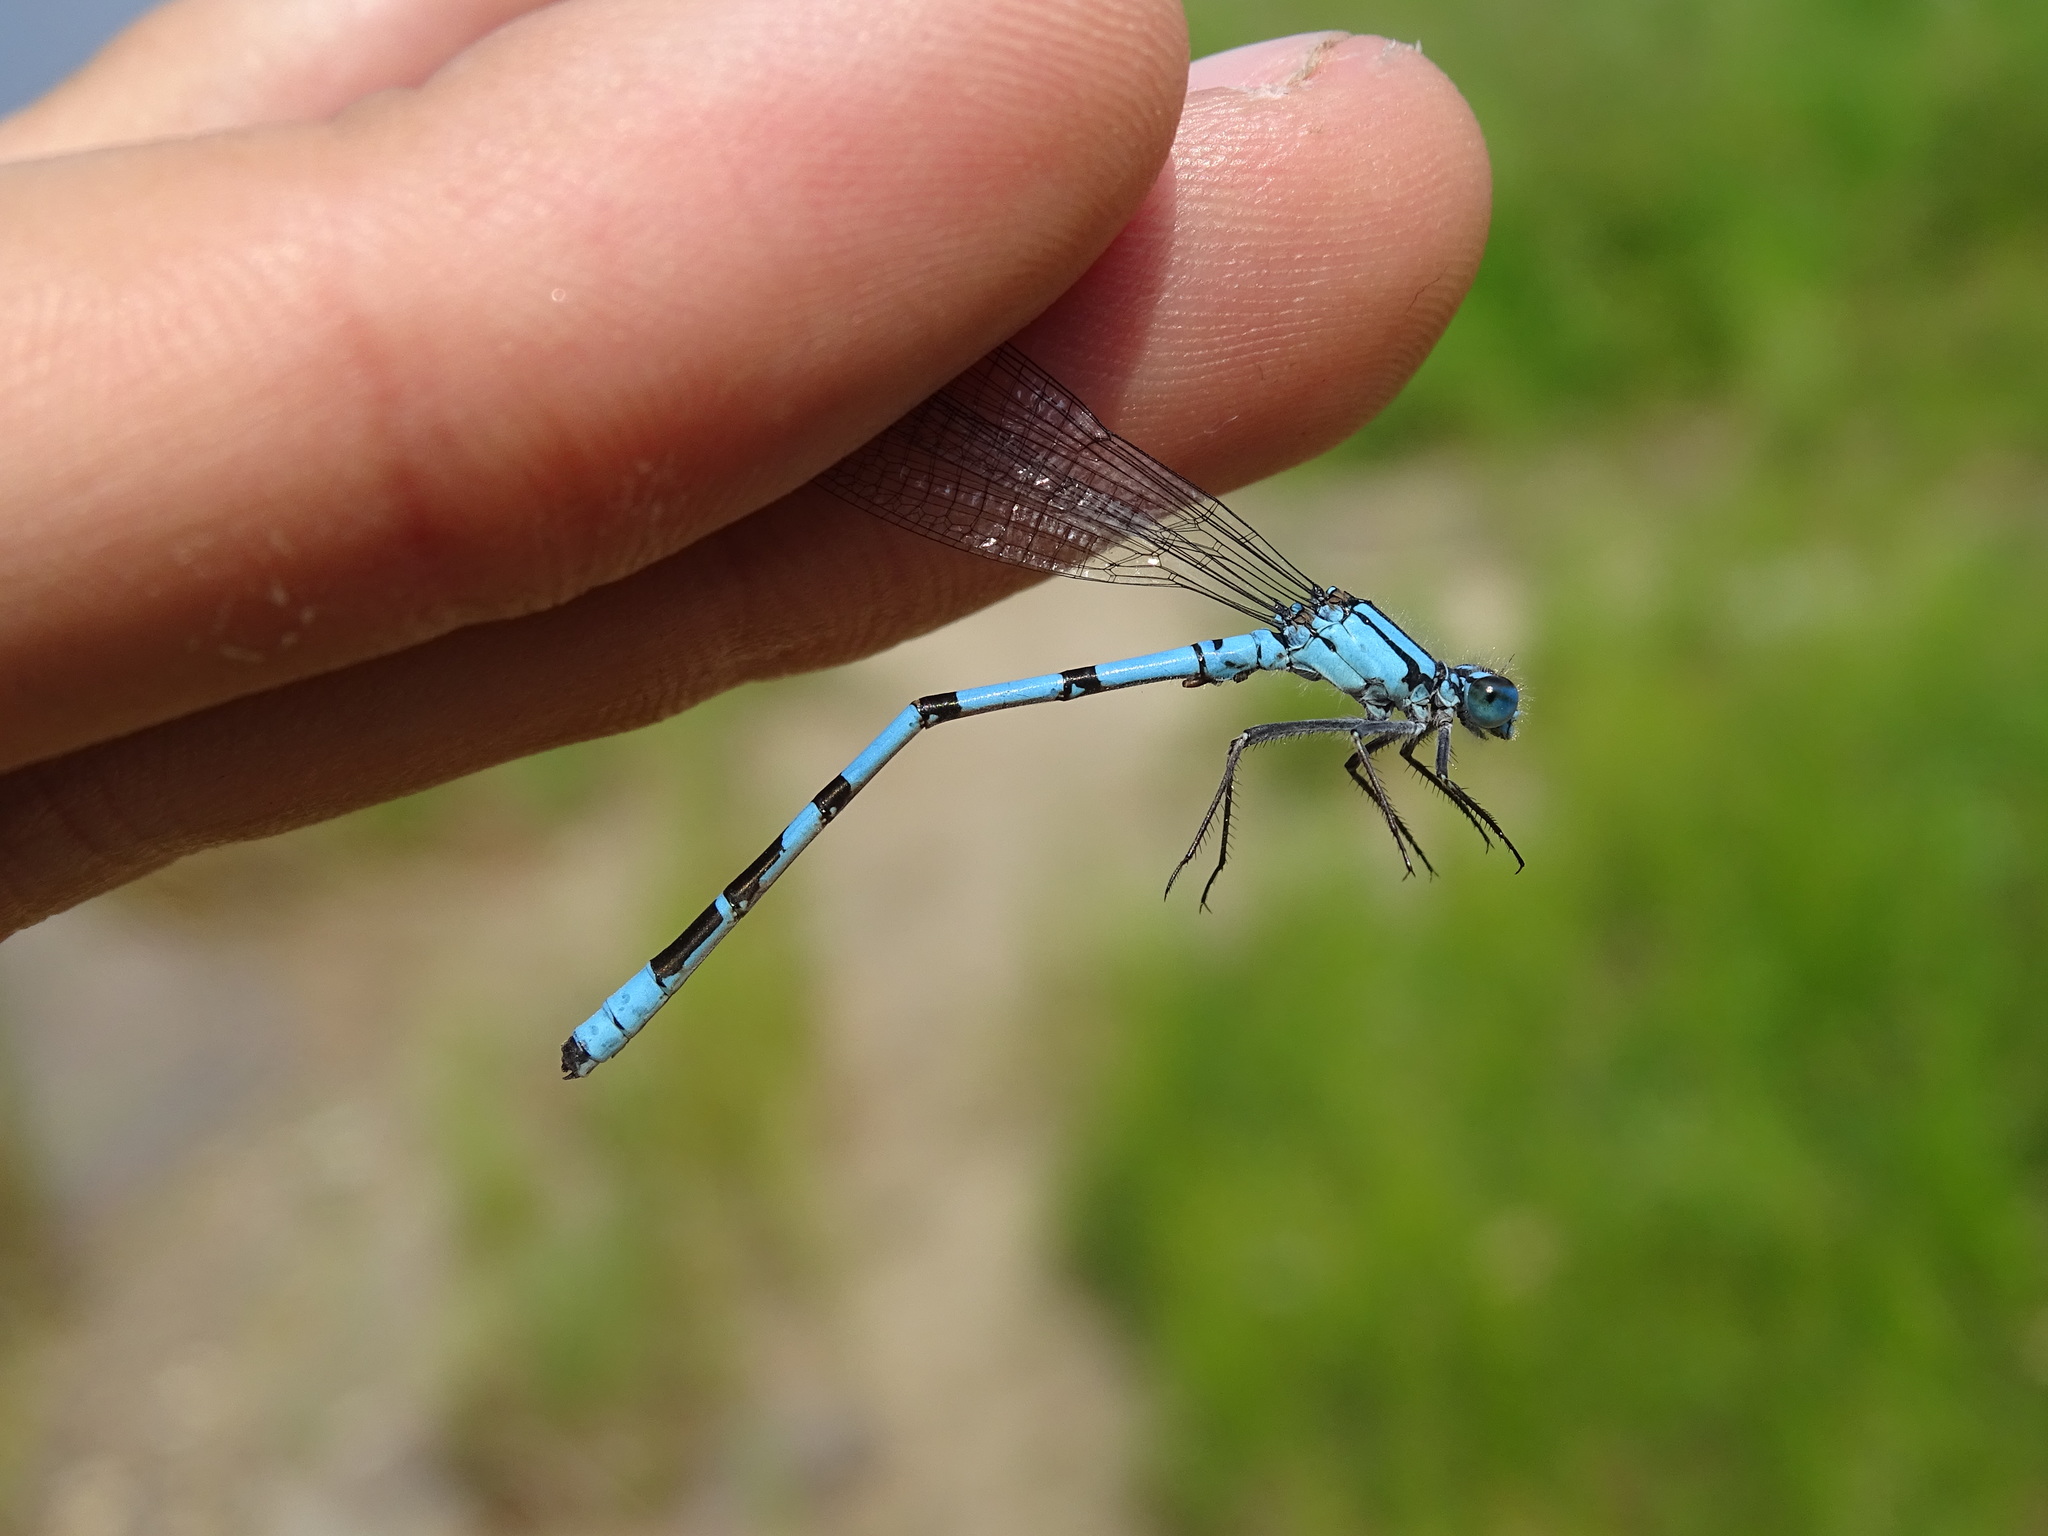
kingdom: Animalia
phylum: Arthropoda
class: Insecta
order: Odonata
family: Coenagrionidae
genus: Enallagma
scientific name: Enallagma boreale
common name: Boreal bluet
